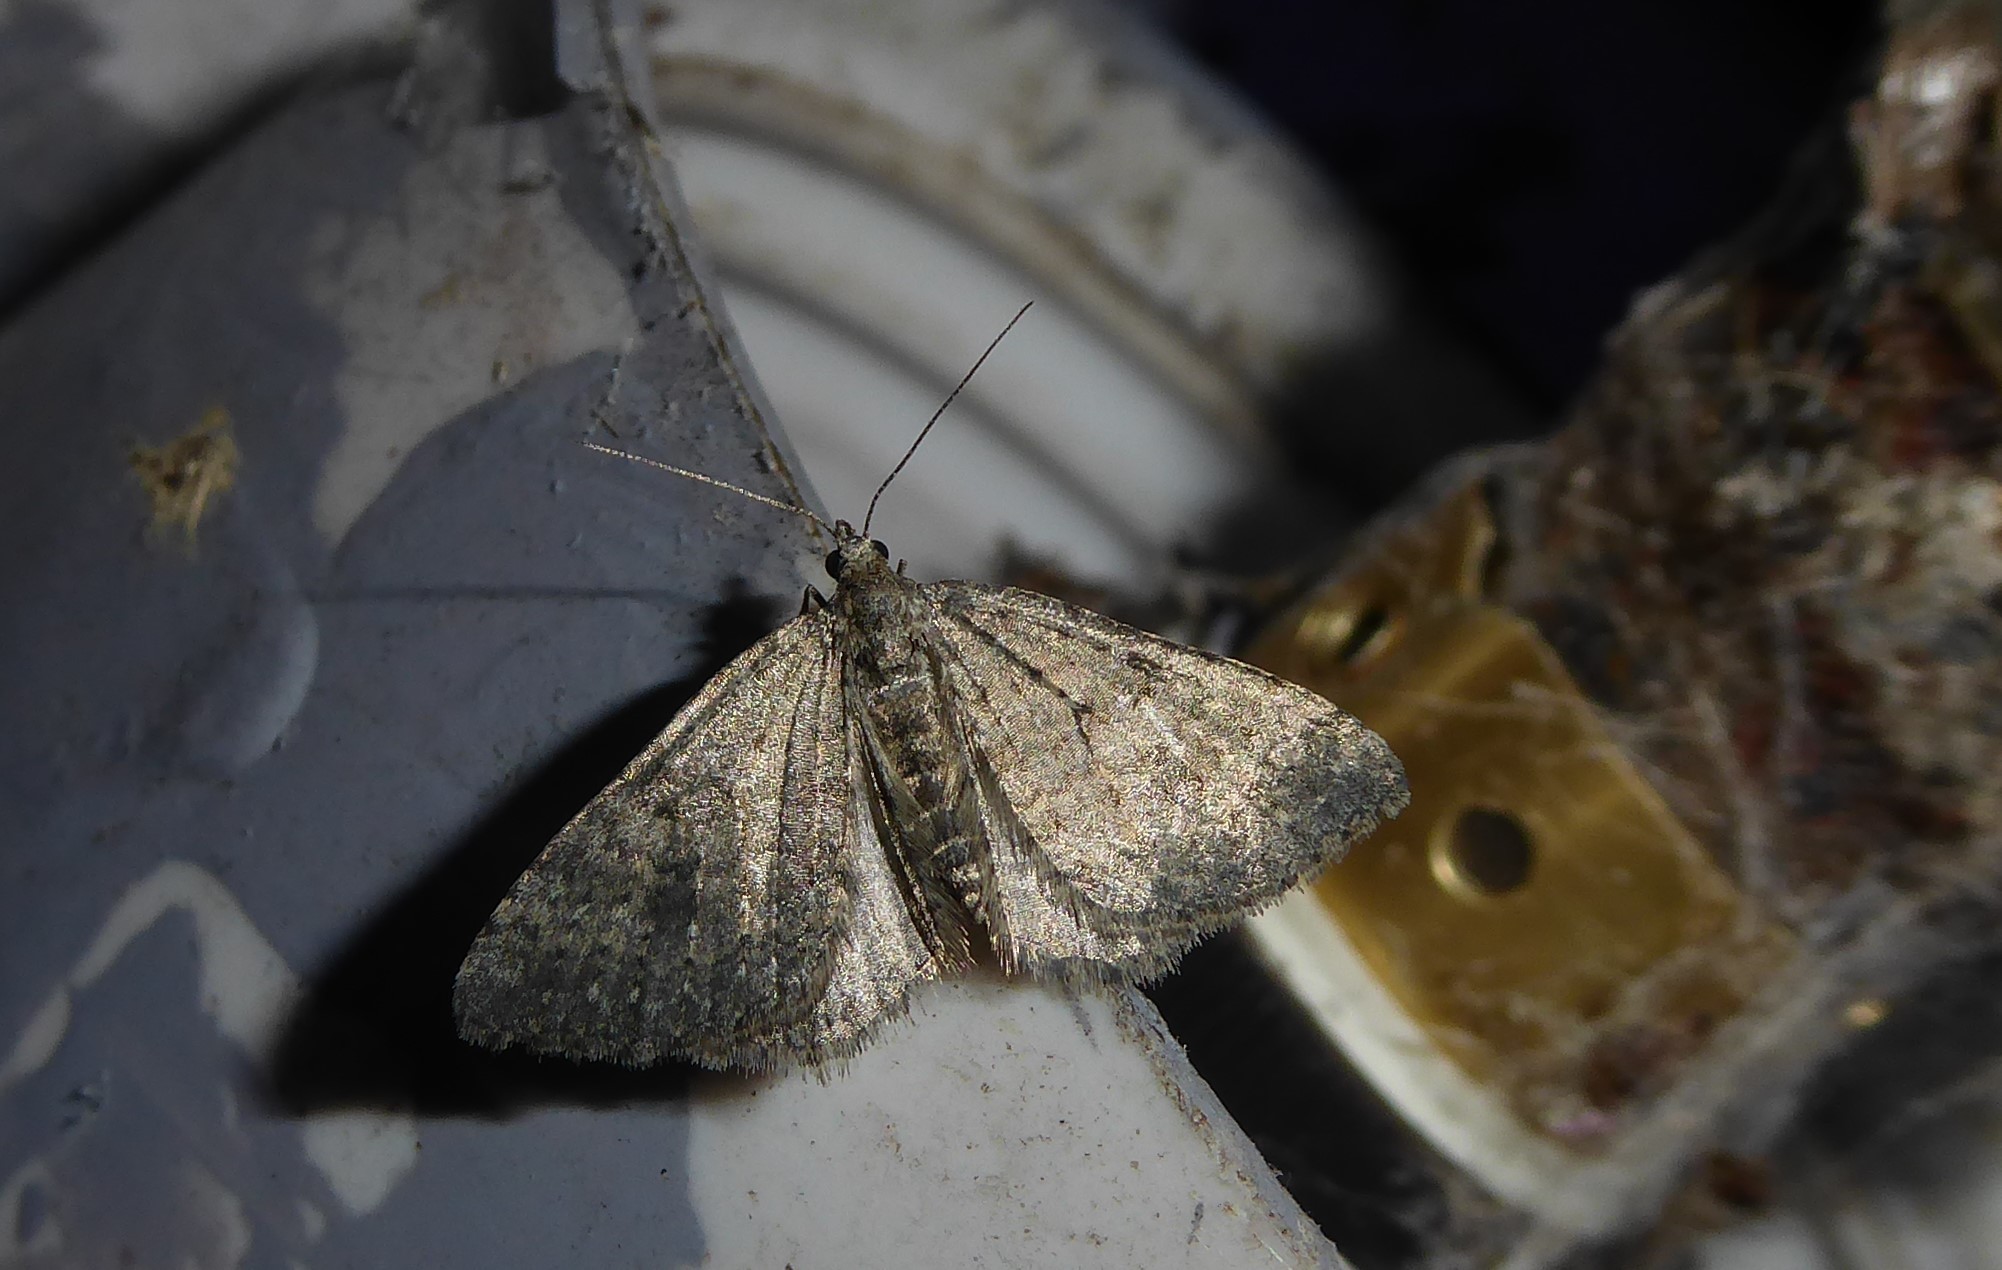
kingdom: Animalia
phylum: Arthropoda
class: Insecta
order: Lepidoptera
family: Geometridae
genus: Helastia
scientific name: Helastia corcularia
